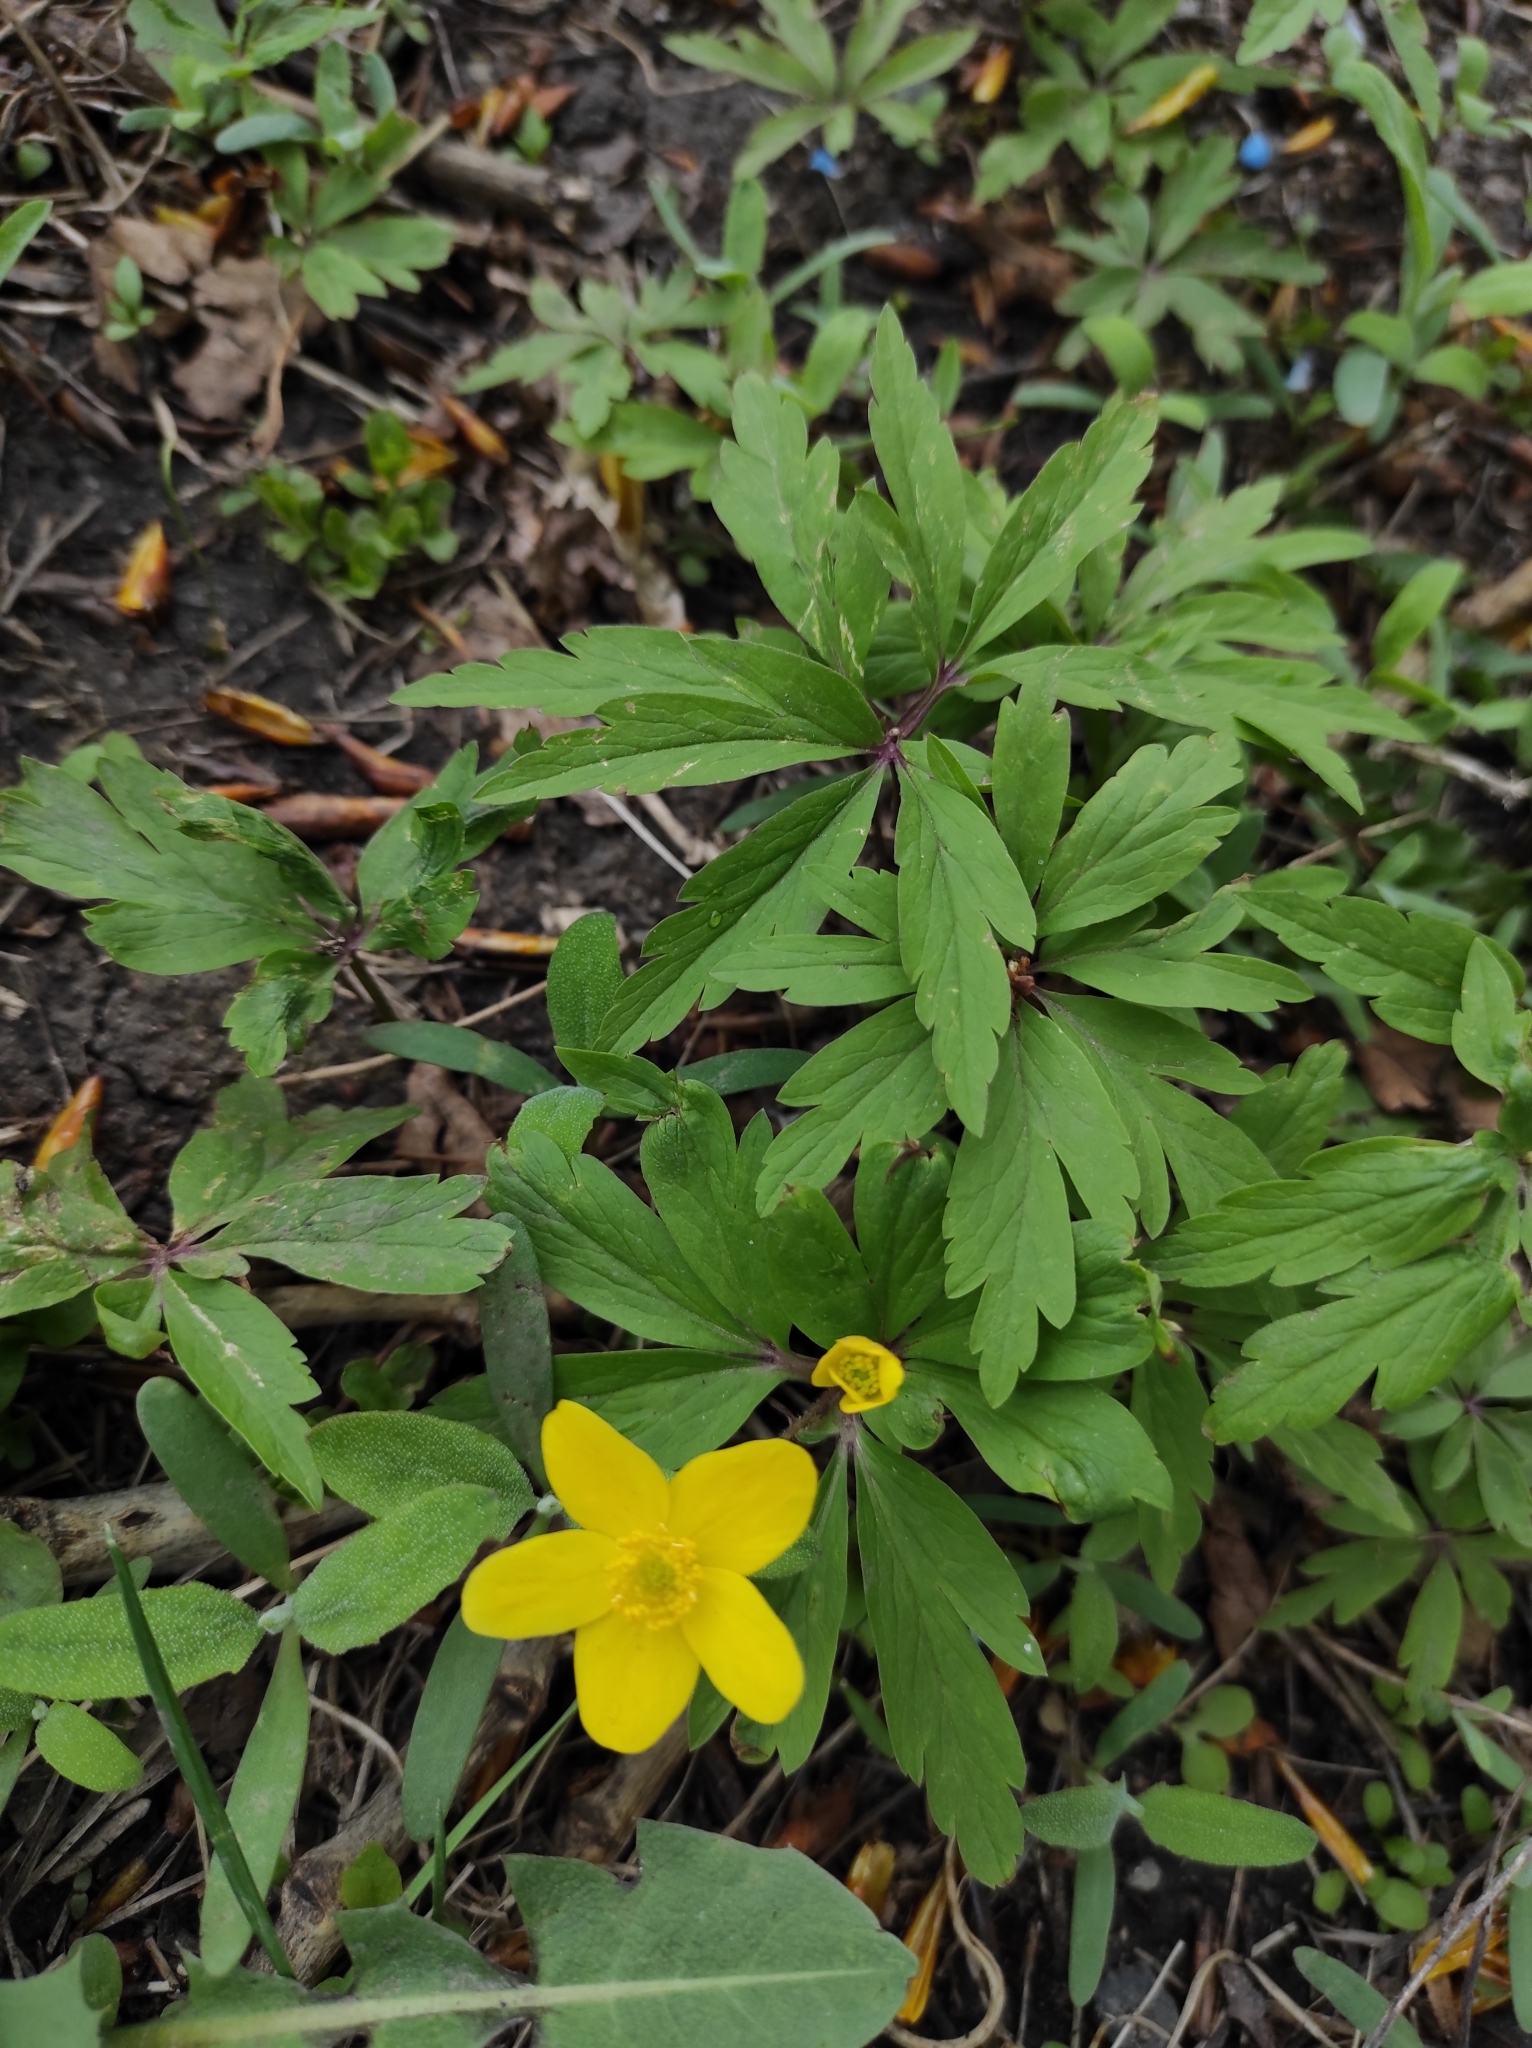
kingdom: Plantae
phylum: Tracheophyta
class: Magnoliopsida
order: Ranunculales
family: Ranunculaceae
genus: Anemone
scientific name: Anemone ranunculoides
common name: Yellow anemone
